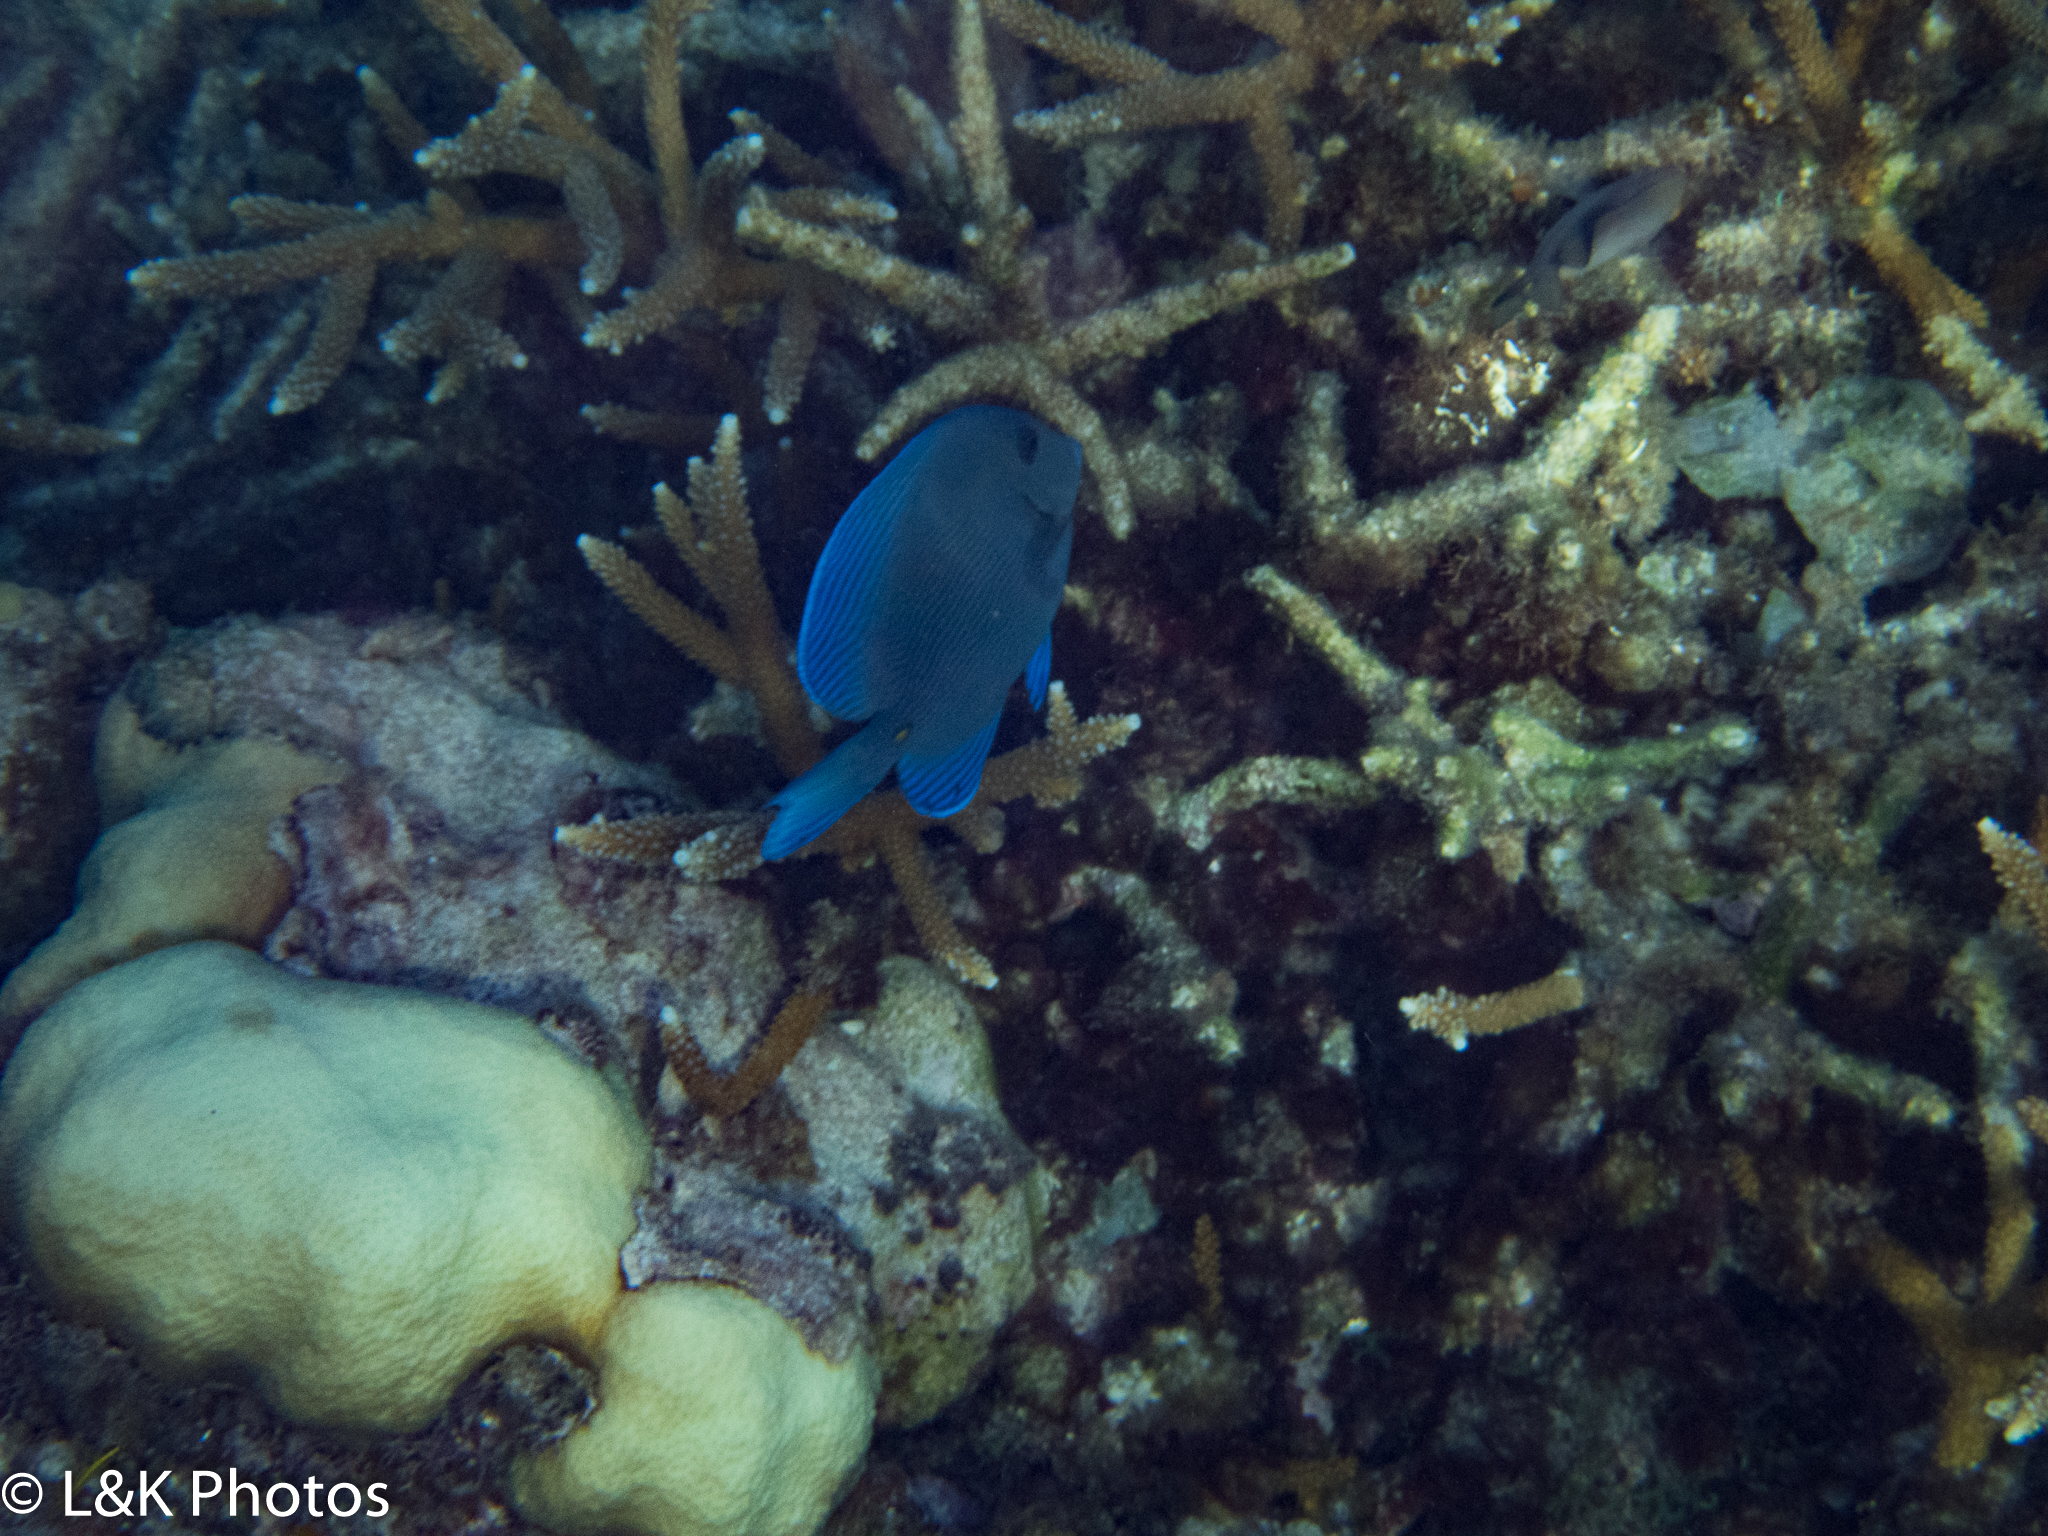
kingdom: Animalia
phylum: Chordata
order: Perciformes
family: Acanthuridae
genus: Acanthurus
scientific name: Acanthurus coeruleus
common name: Blue tang
